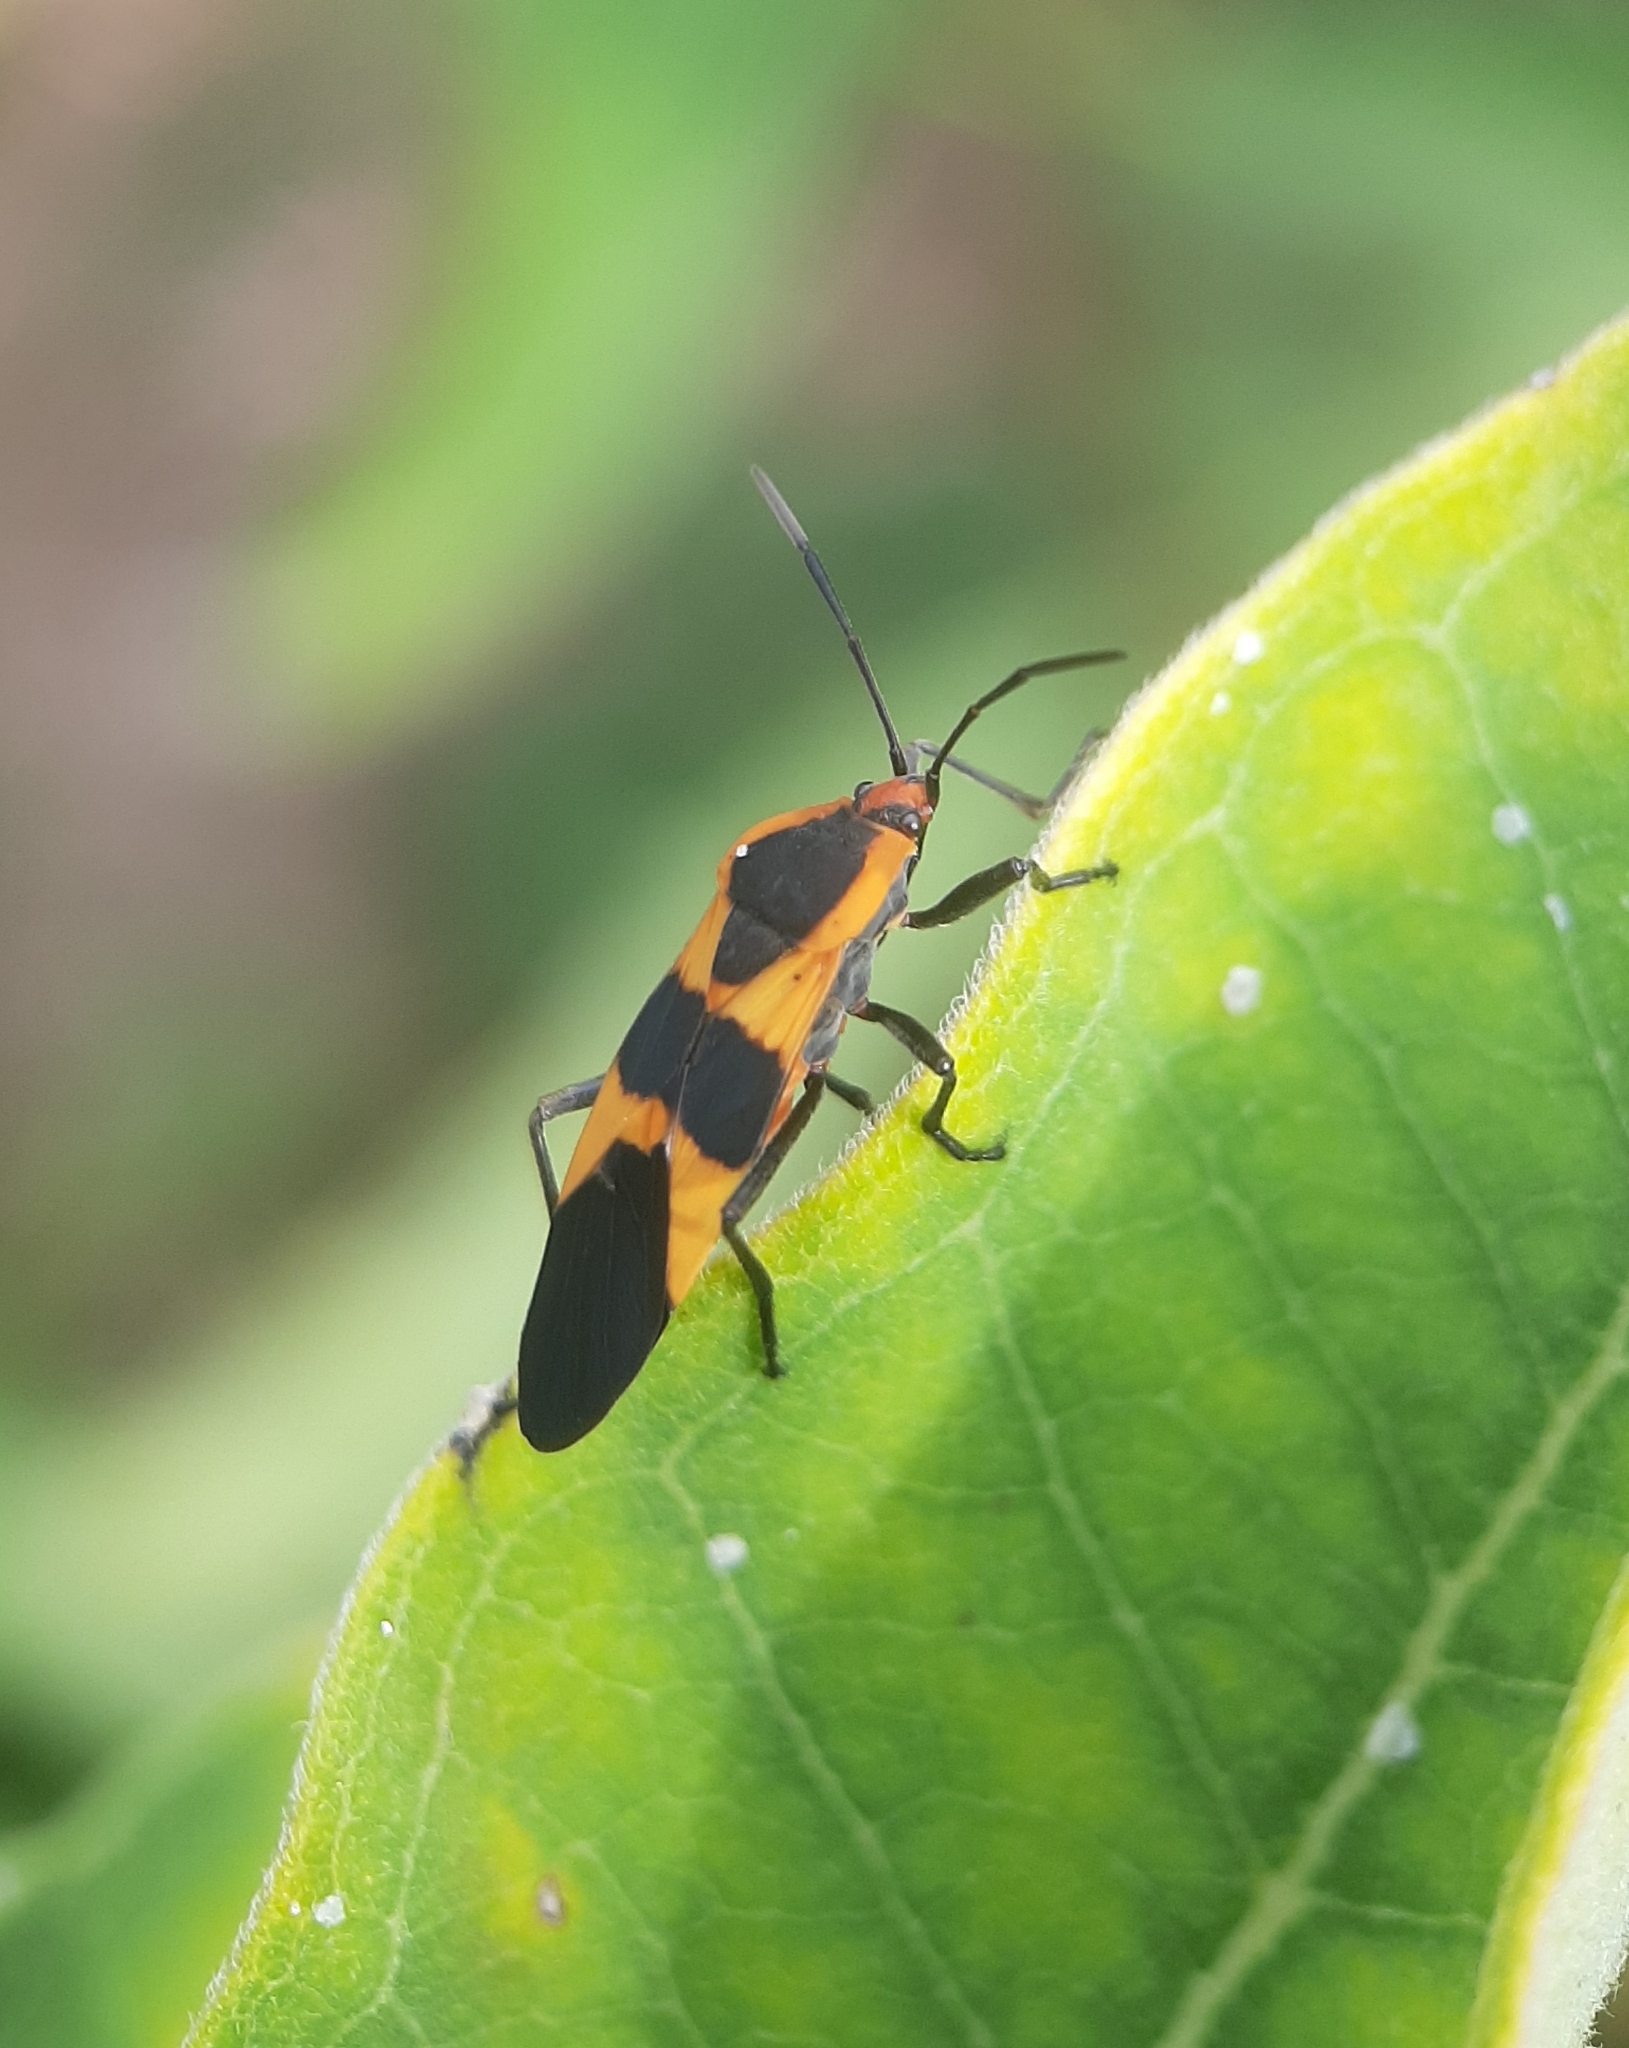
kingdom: Animalia
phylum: Arthropoda
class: Insecta
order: Hemiptera
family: Lygaeidae
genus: Oncopeltus
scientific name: Oncopeltus fasciatus
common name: Large milkweed bug
